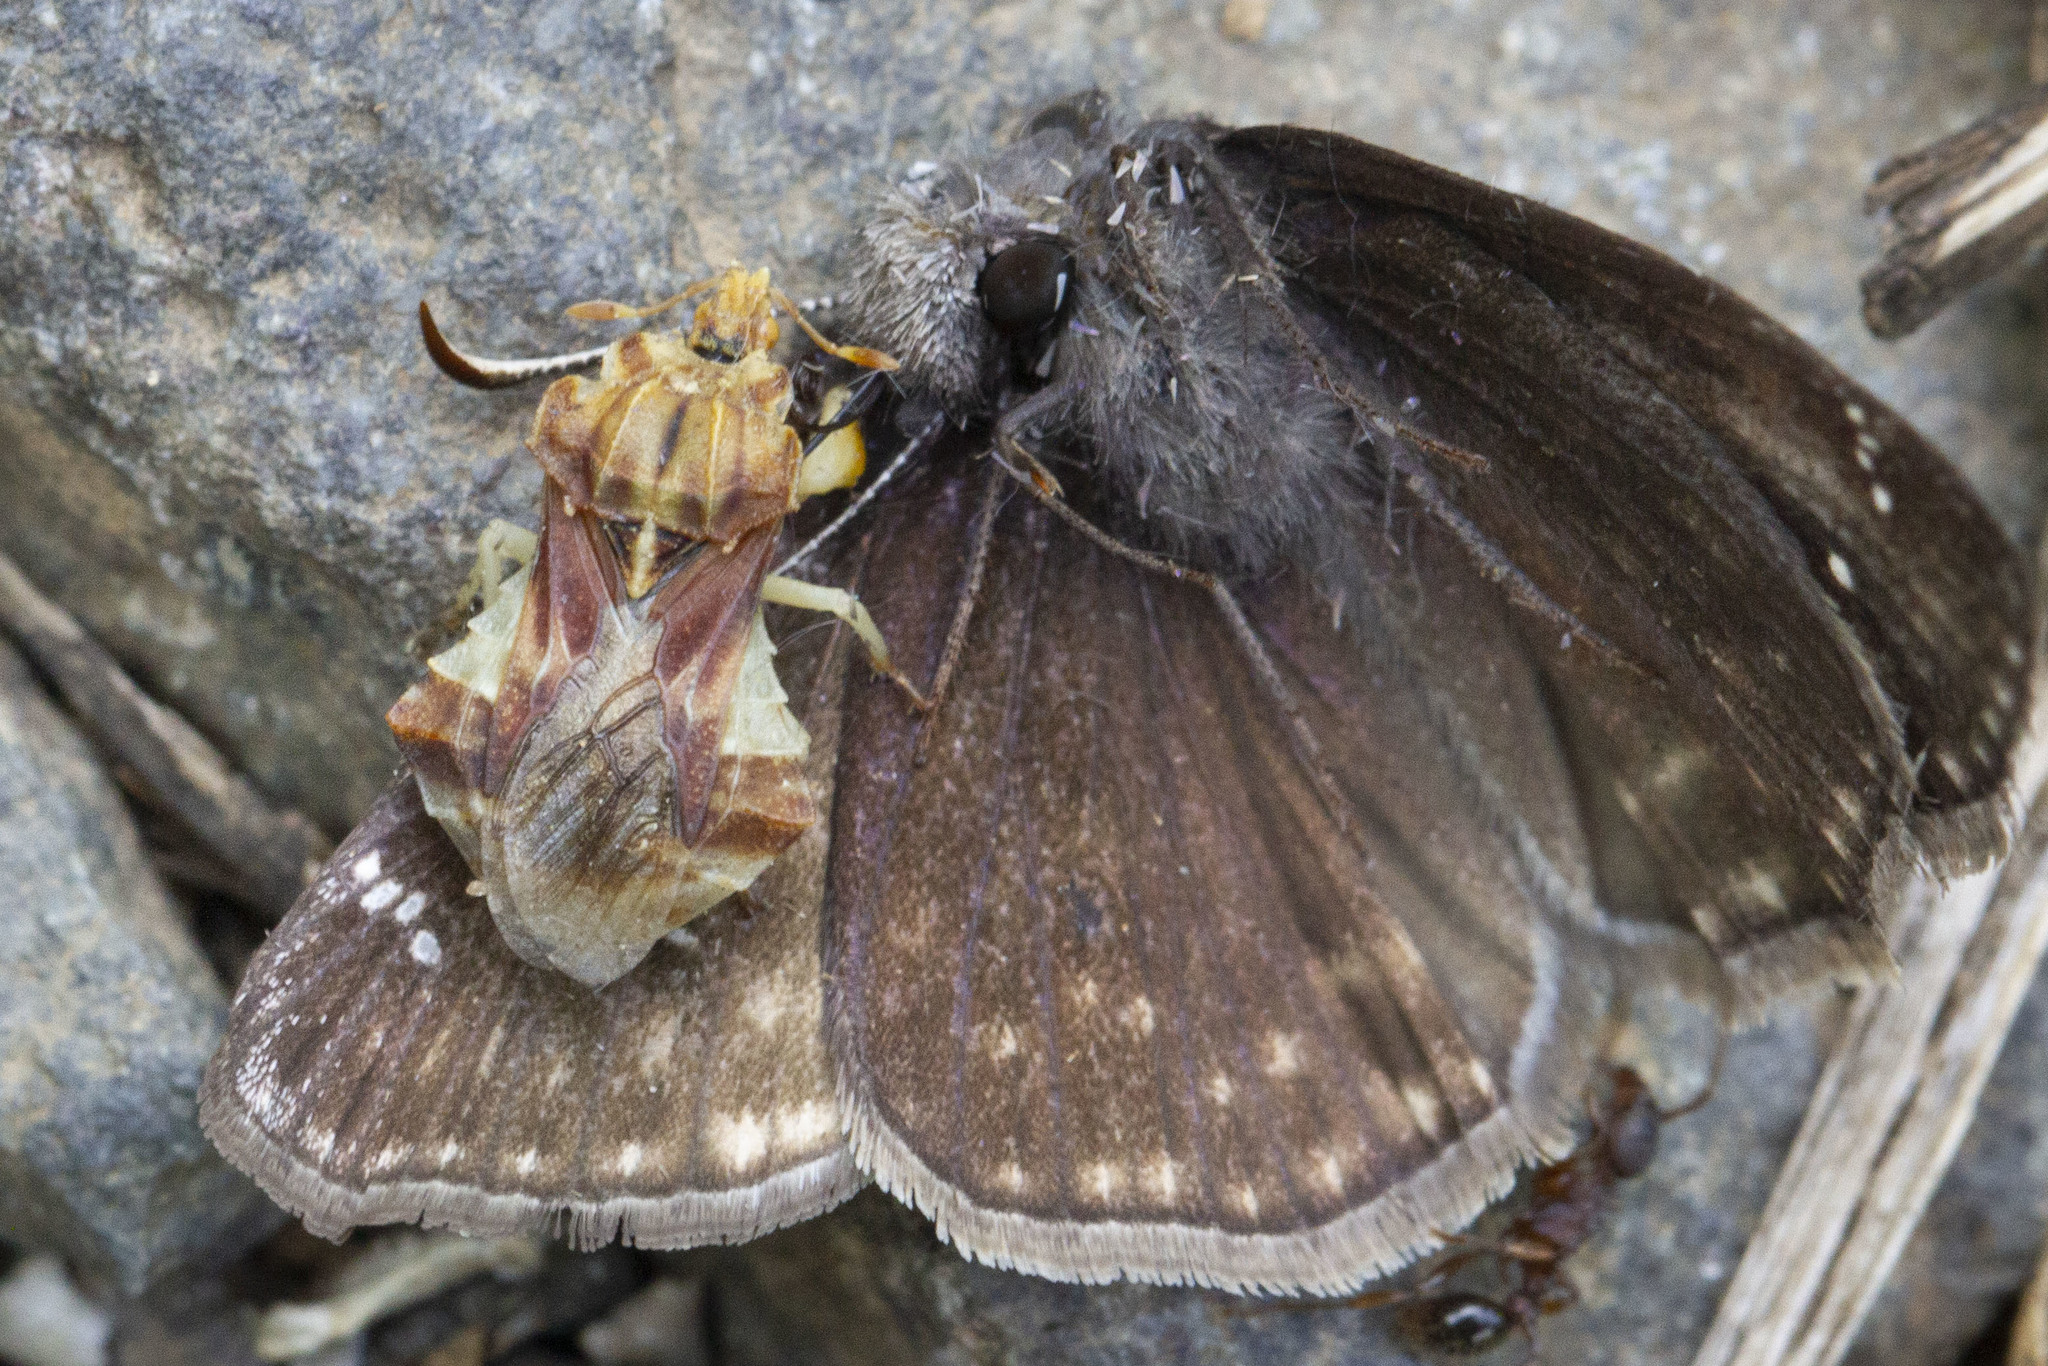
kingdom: Animalia
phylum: Arthropoda
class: Insecta
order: Hemiptera
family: Reduviidae
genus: Phymata
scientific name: Phymata fasciata
